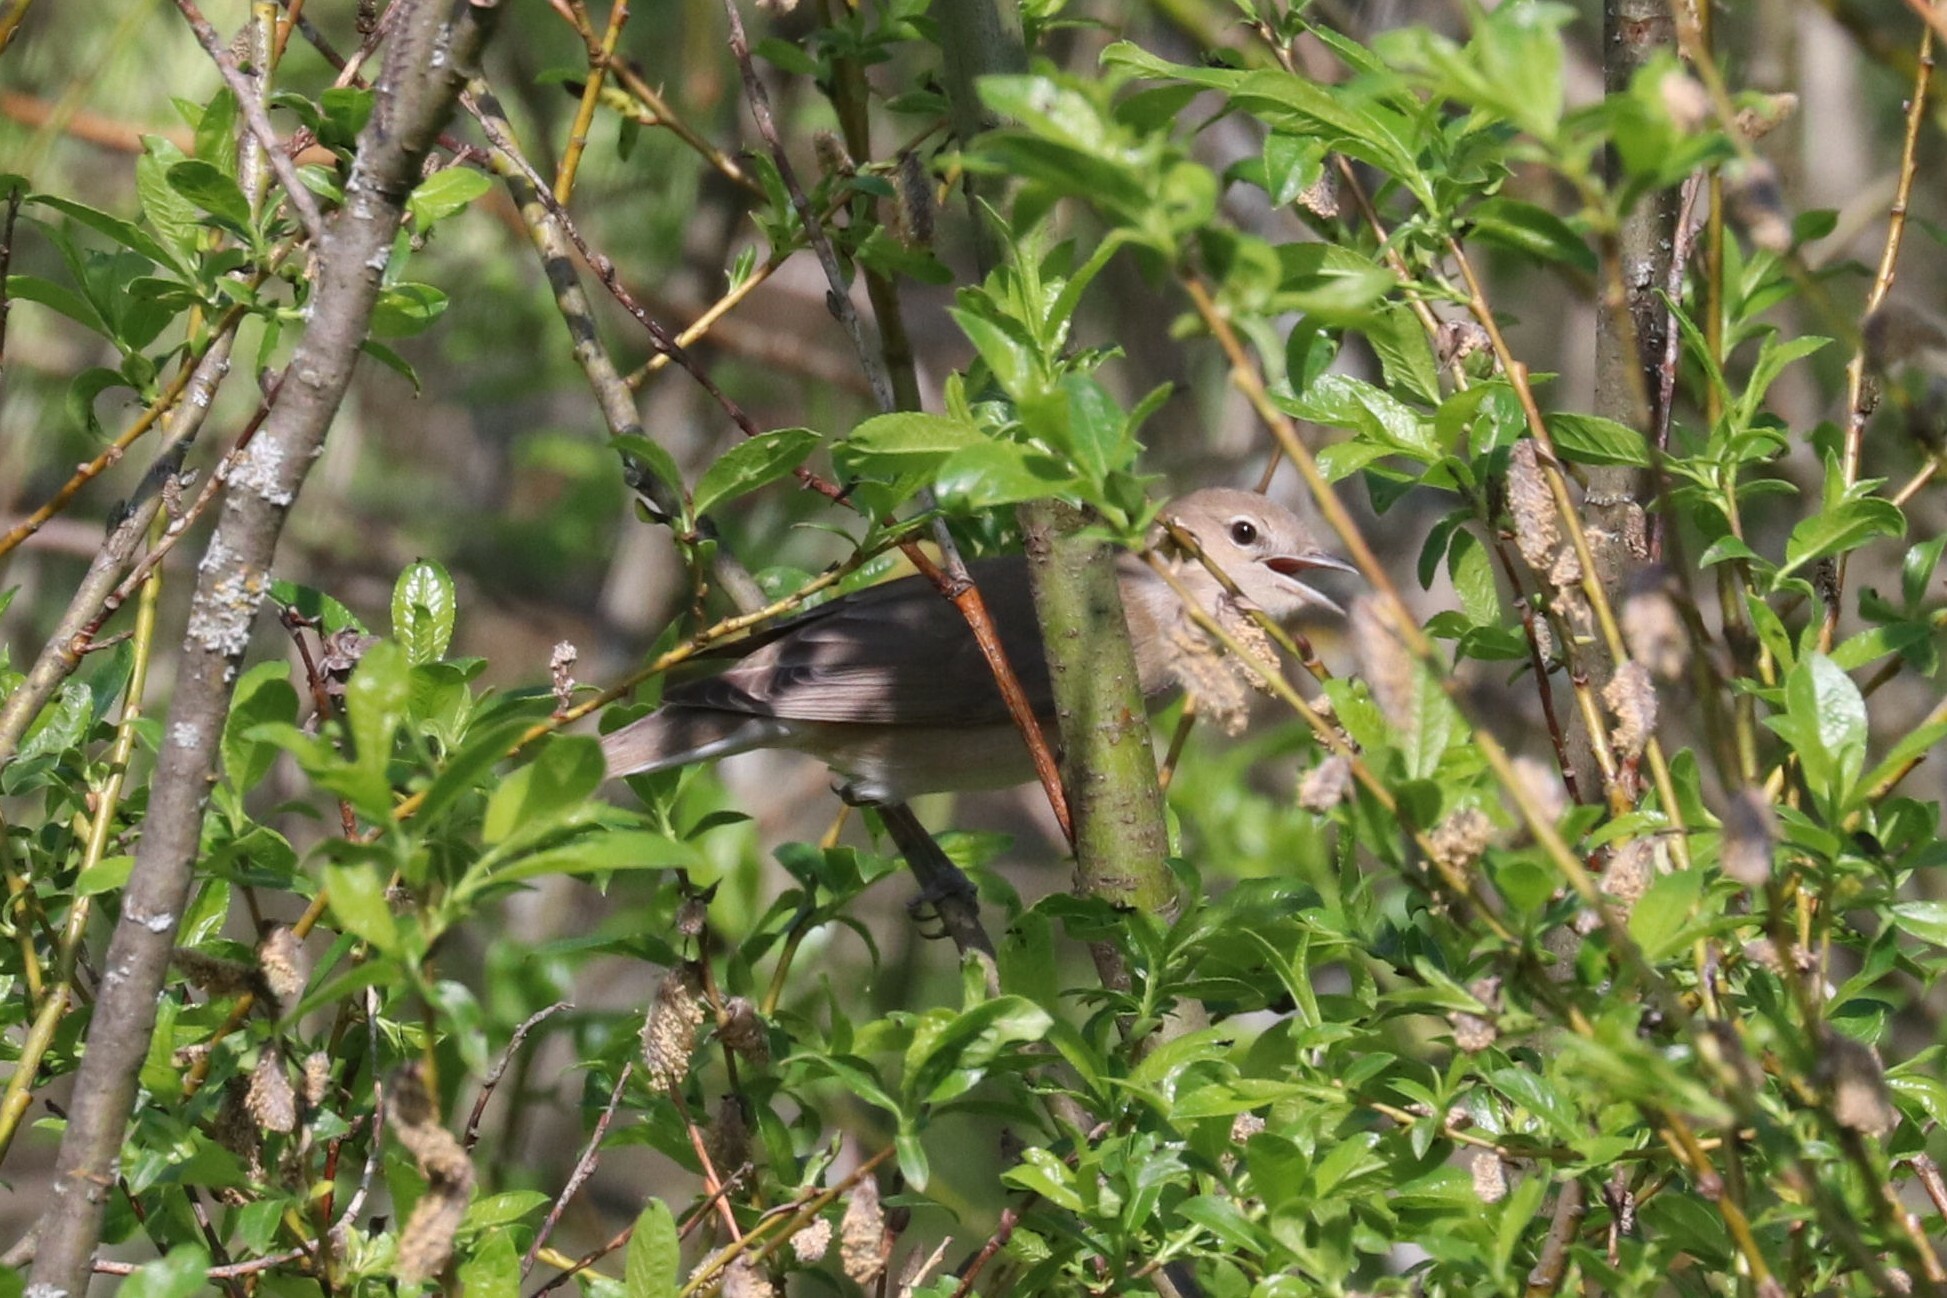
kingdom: Animalia
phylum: Chordata
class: Aves
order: Passeriformes
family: Sylviidae
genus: Sylvia
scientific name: Sylvia borin
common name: Garden warbler
